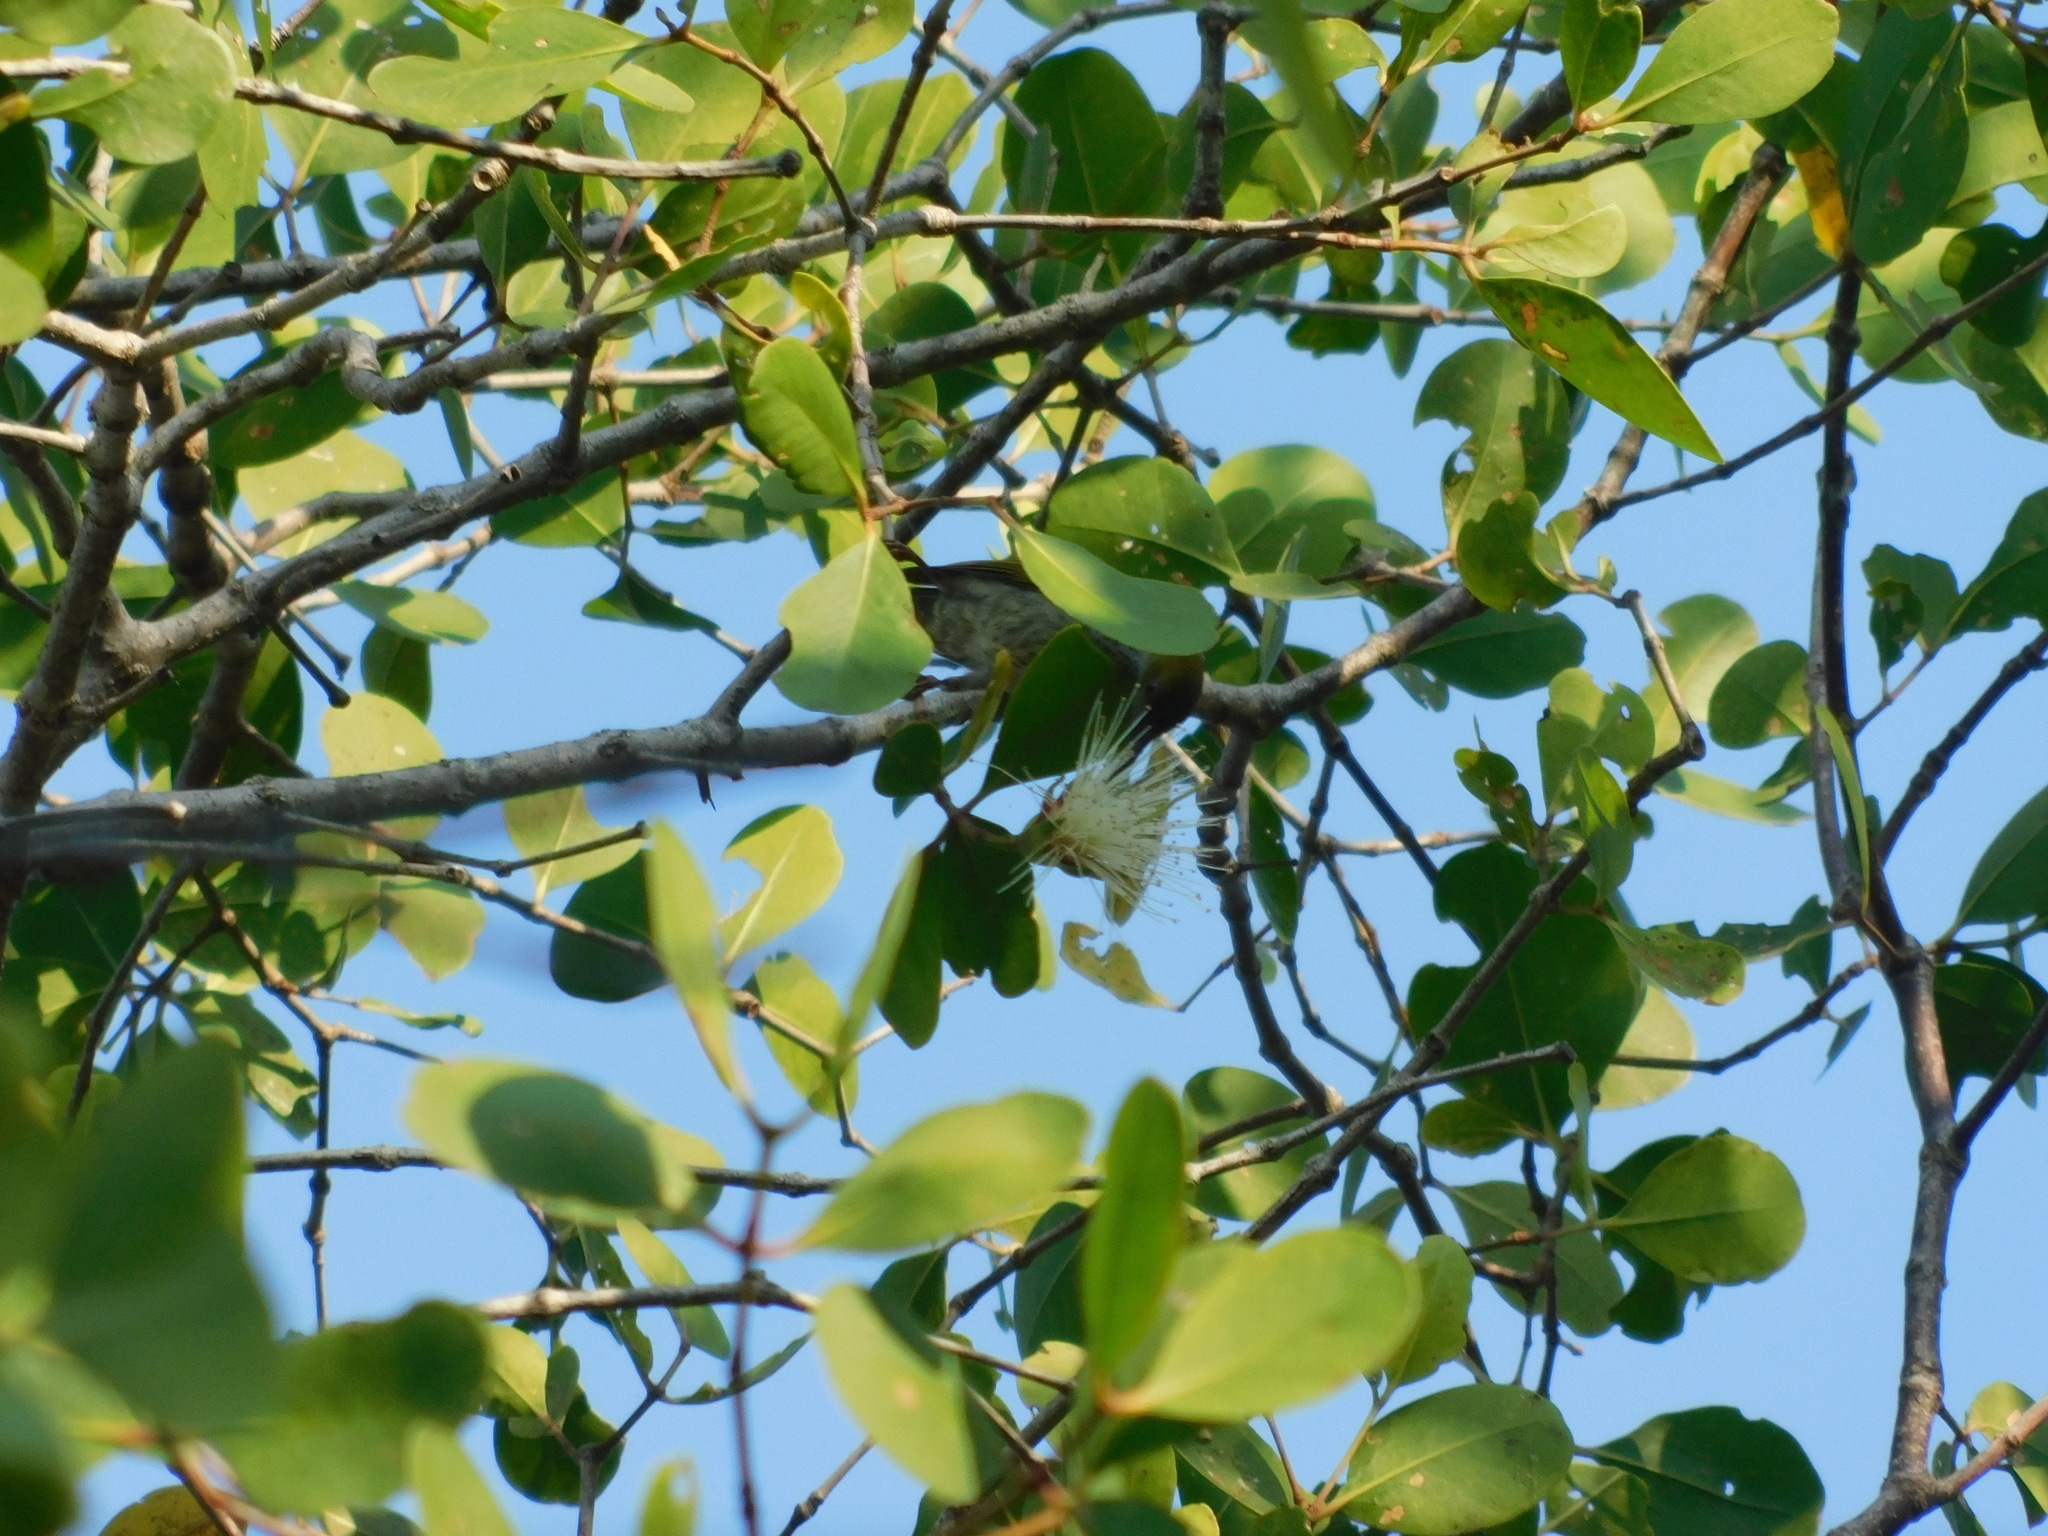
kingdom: Animalia
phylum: Chordata
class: Aves
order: Passeriformes
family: Nectariniidae
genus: Arachnothera
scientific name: Arachnothera affinis
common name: Streaky-breasted spiderhunter
